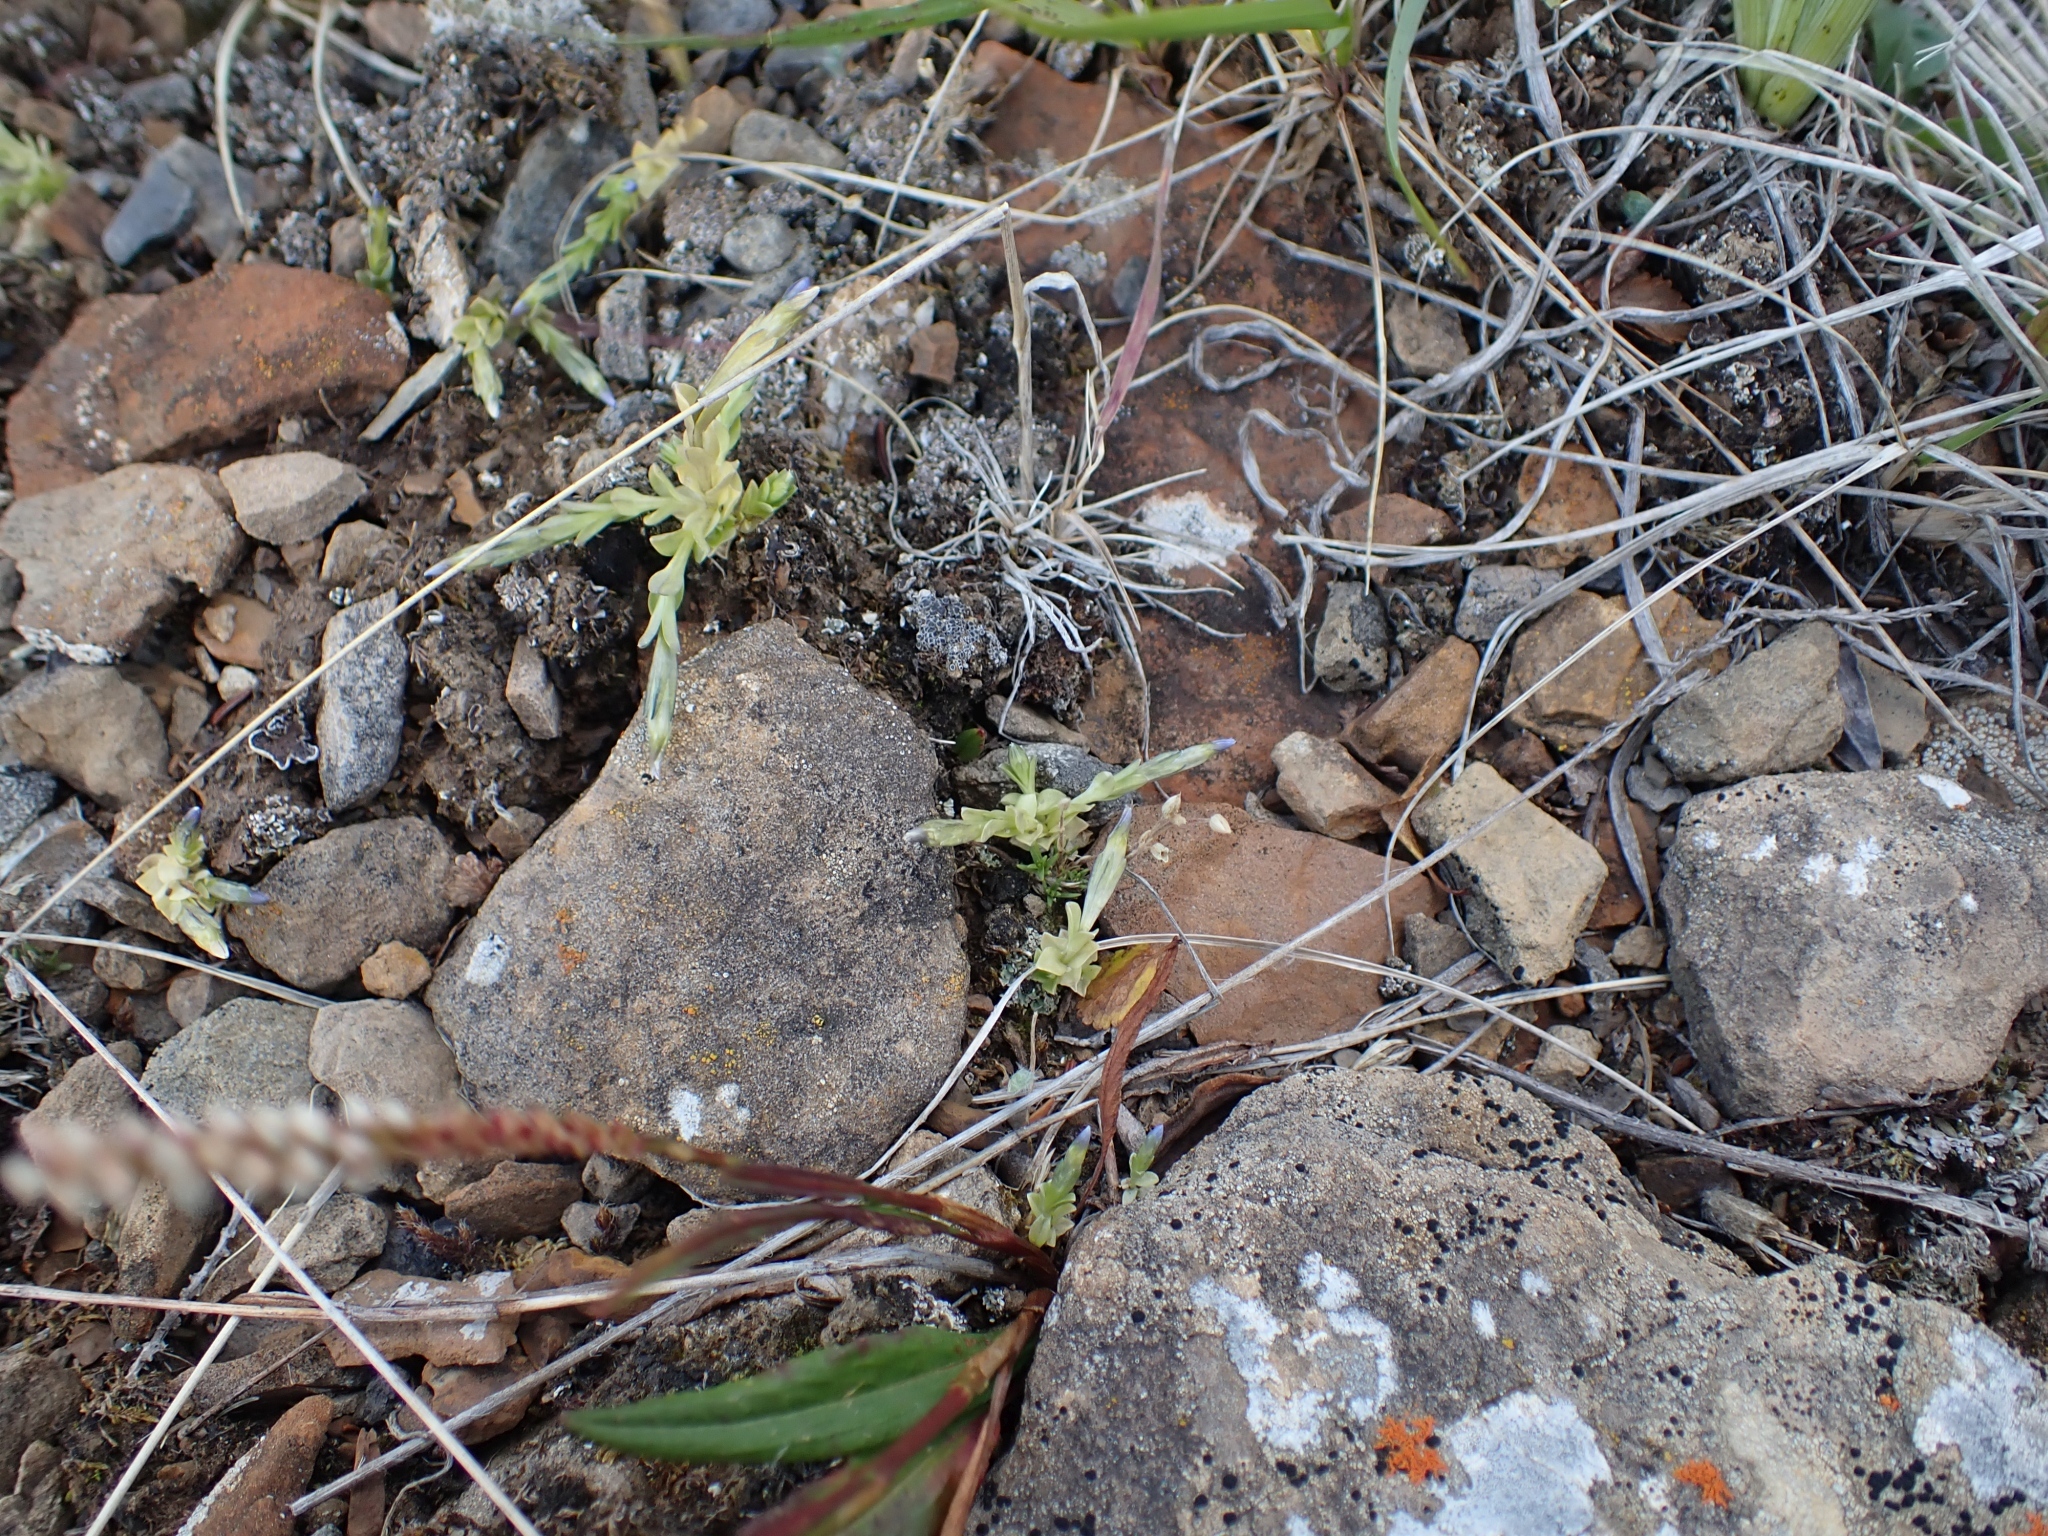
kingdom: Plantae
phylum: Tracheophyta
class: Magnoliopsida
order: Gentianales
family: Gentianaceae
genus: Gentiana
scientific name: Gentiana prostrata
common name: Moss gentian
